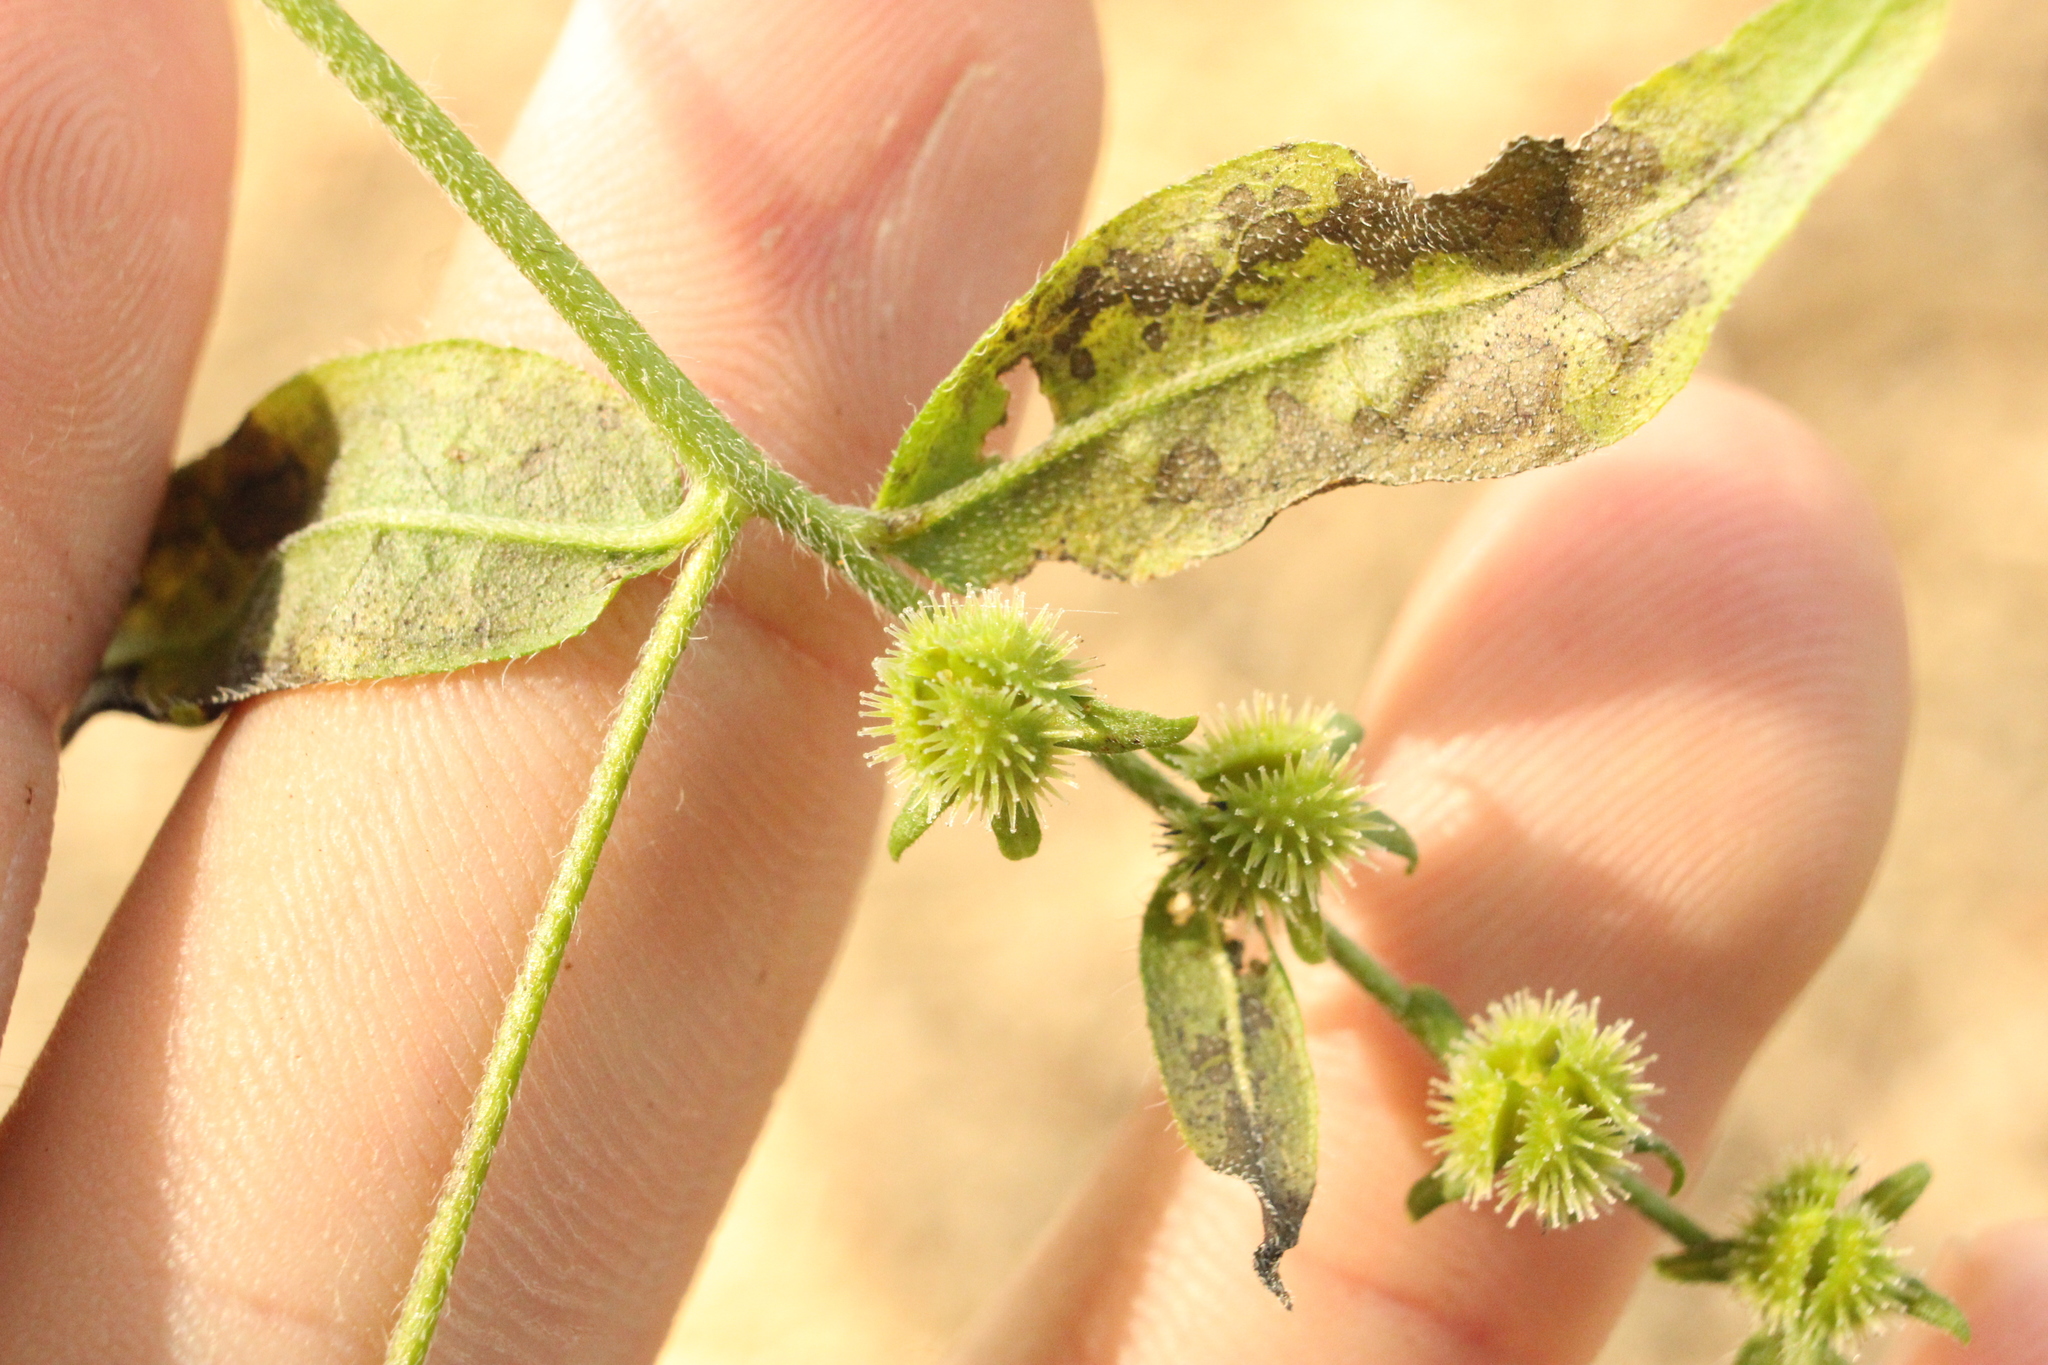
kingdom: Plantae
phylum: Tracheophyta
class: Magnoliopsida
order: Boraginales
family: Boraginaceae
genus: Hackelia
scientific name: Hackelia virginiana
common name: Beggar's-lice
